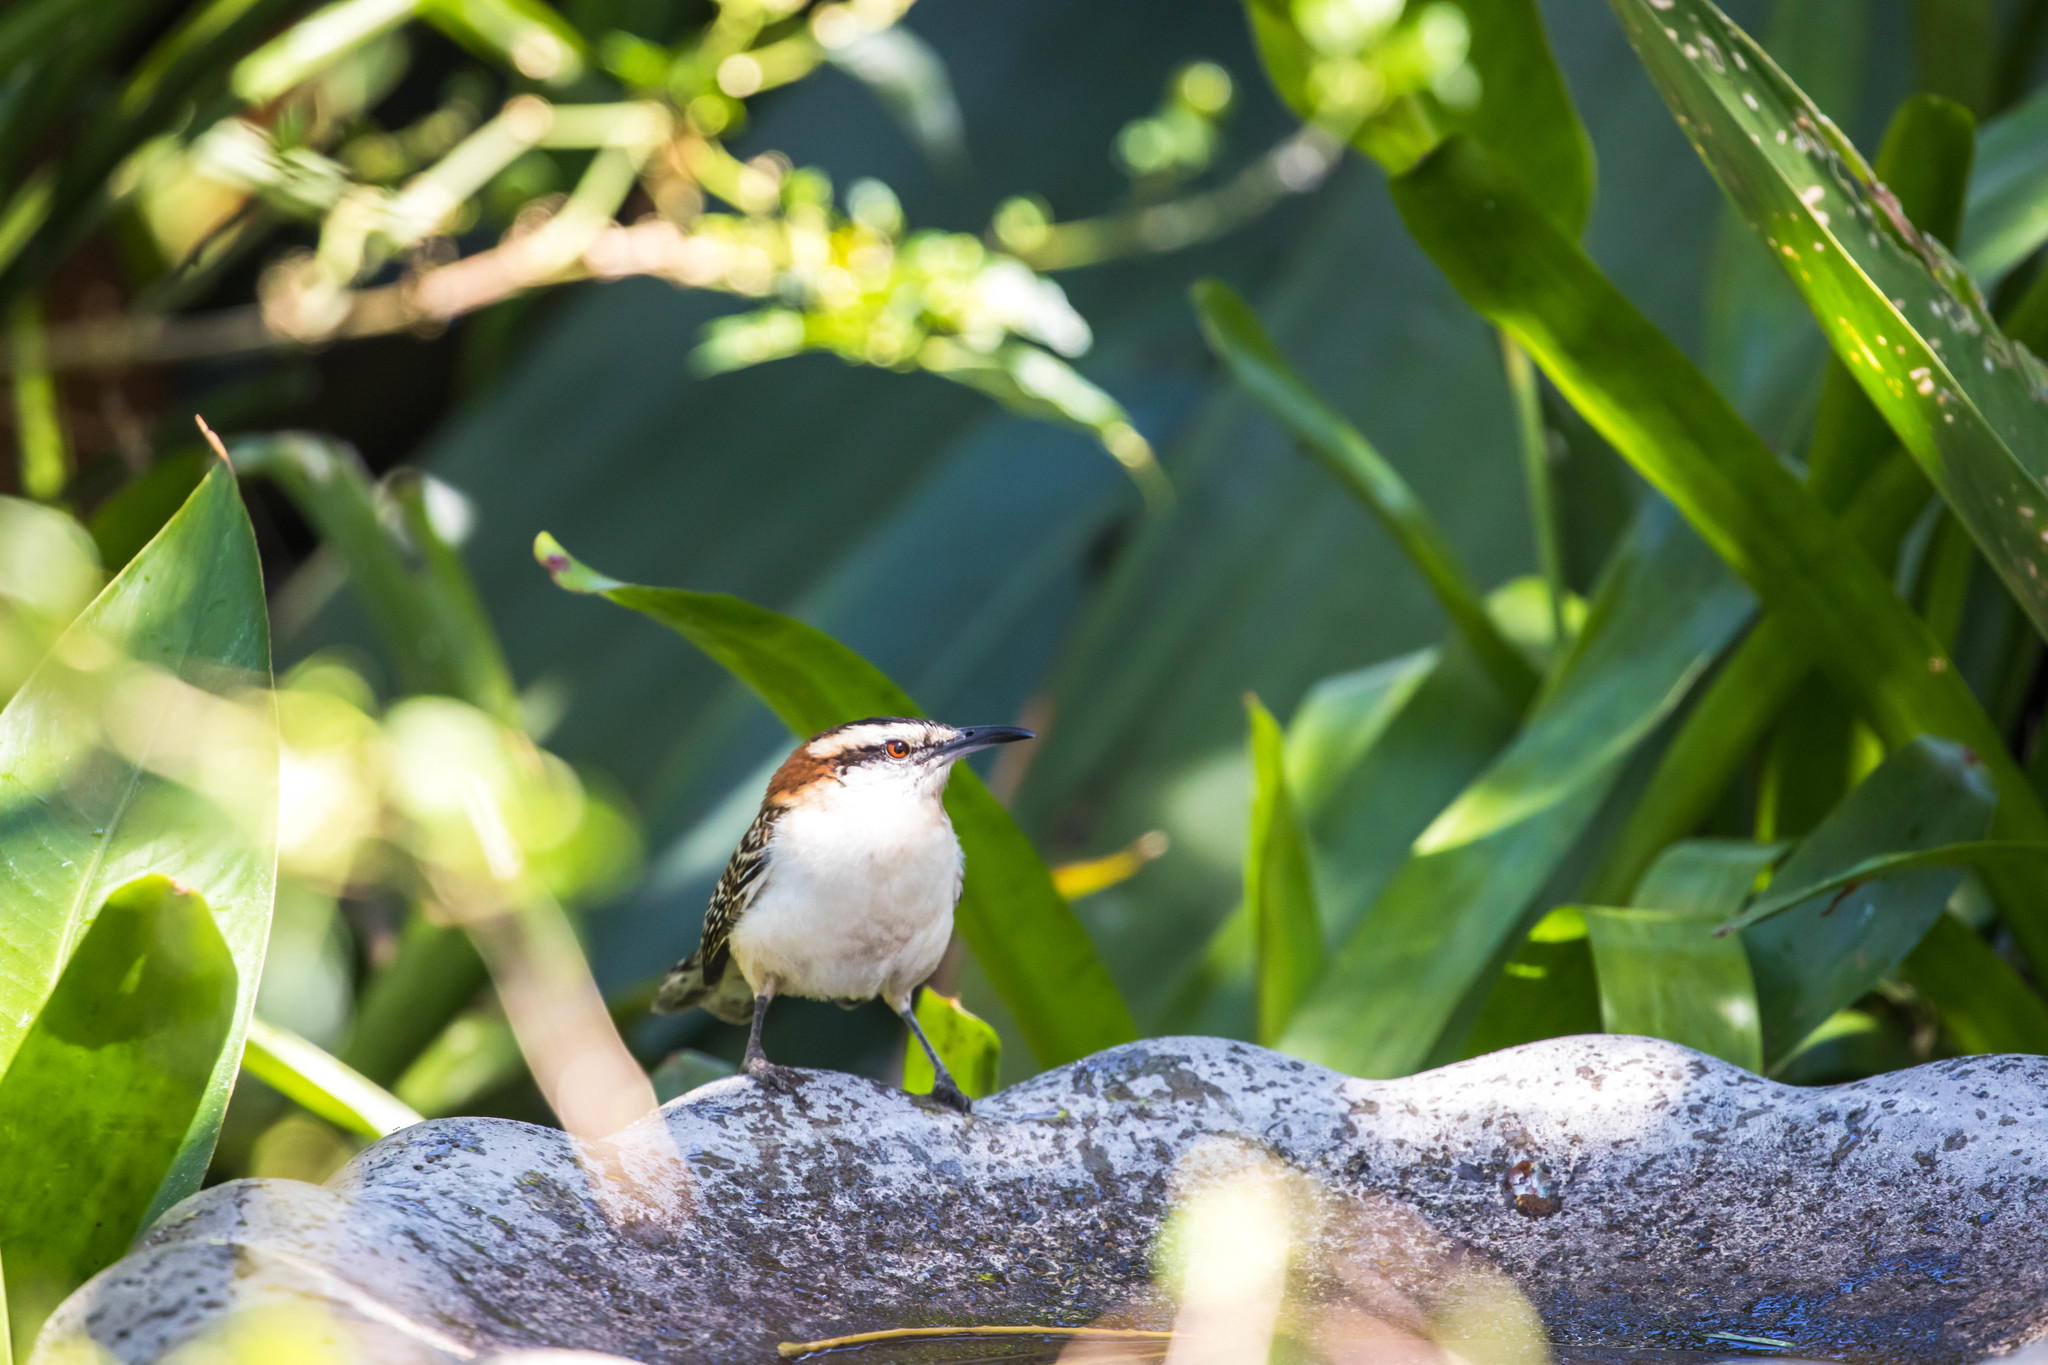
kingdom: Animalia
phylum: Chordata
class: Aves
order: Passeriformes
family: Troglodytidae
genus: Campylorhynchus
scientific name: Campylorhynchus rufinucha
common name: Rufous-naped wren
